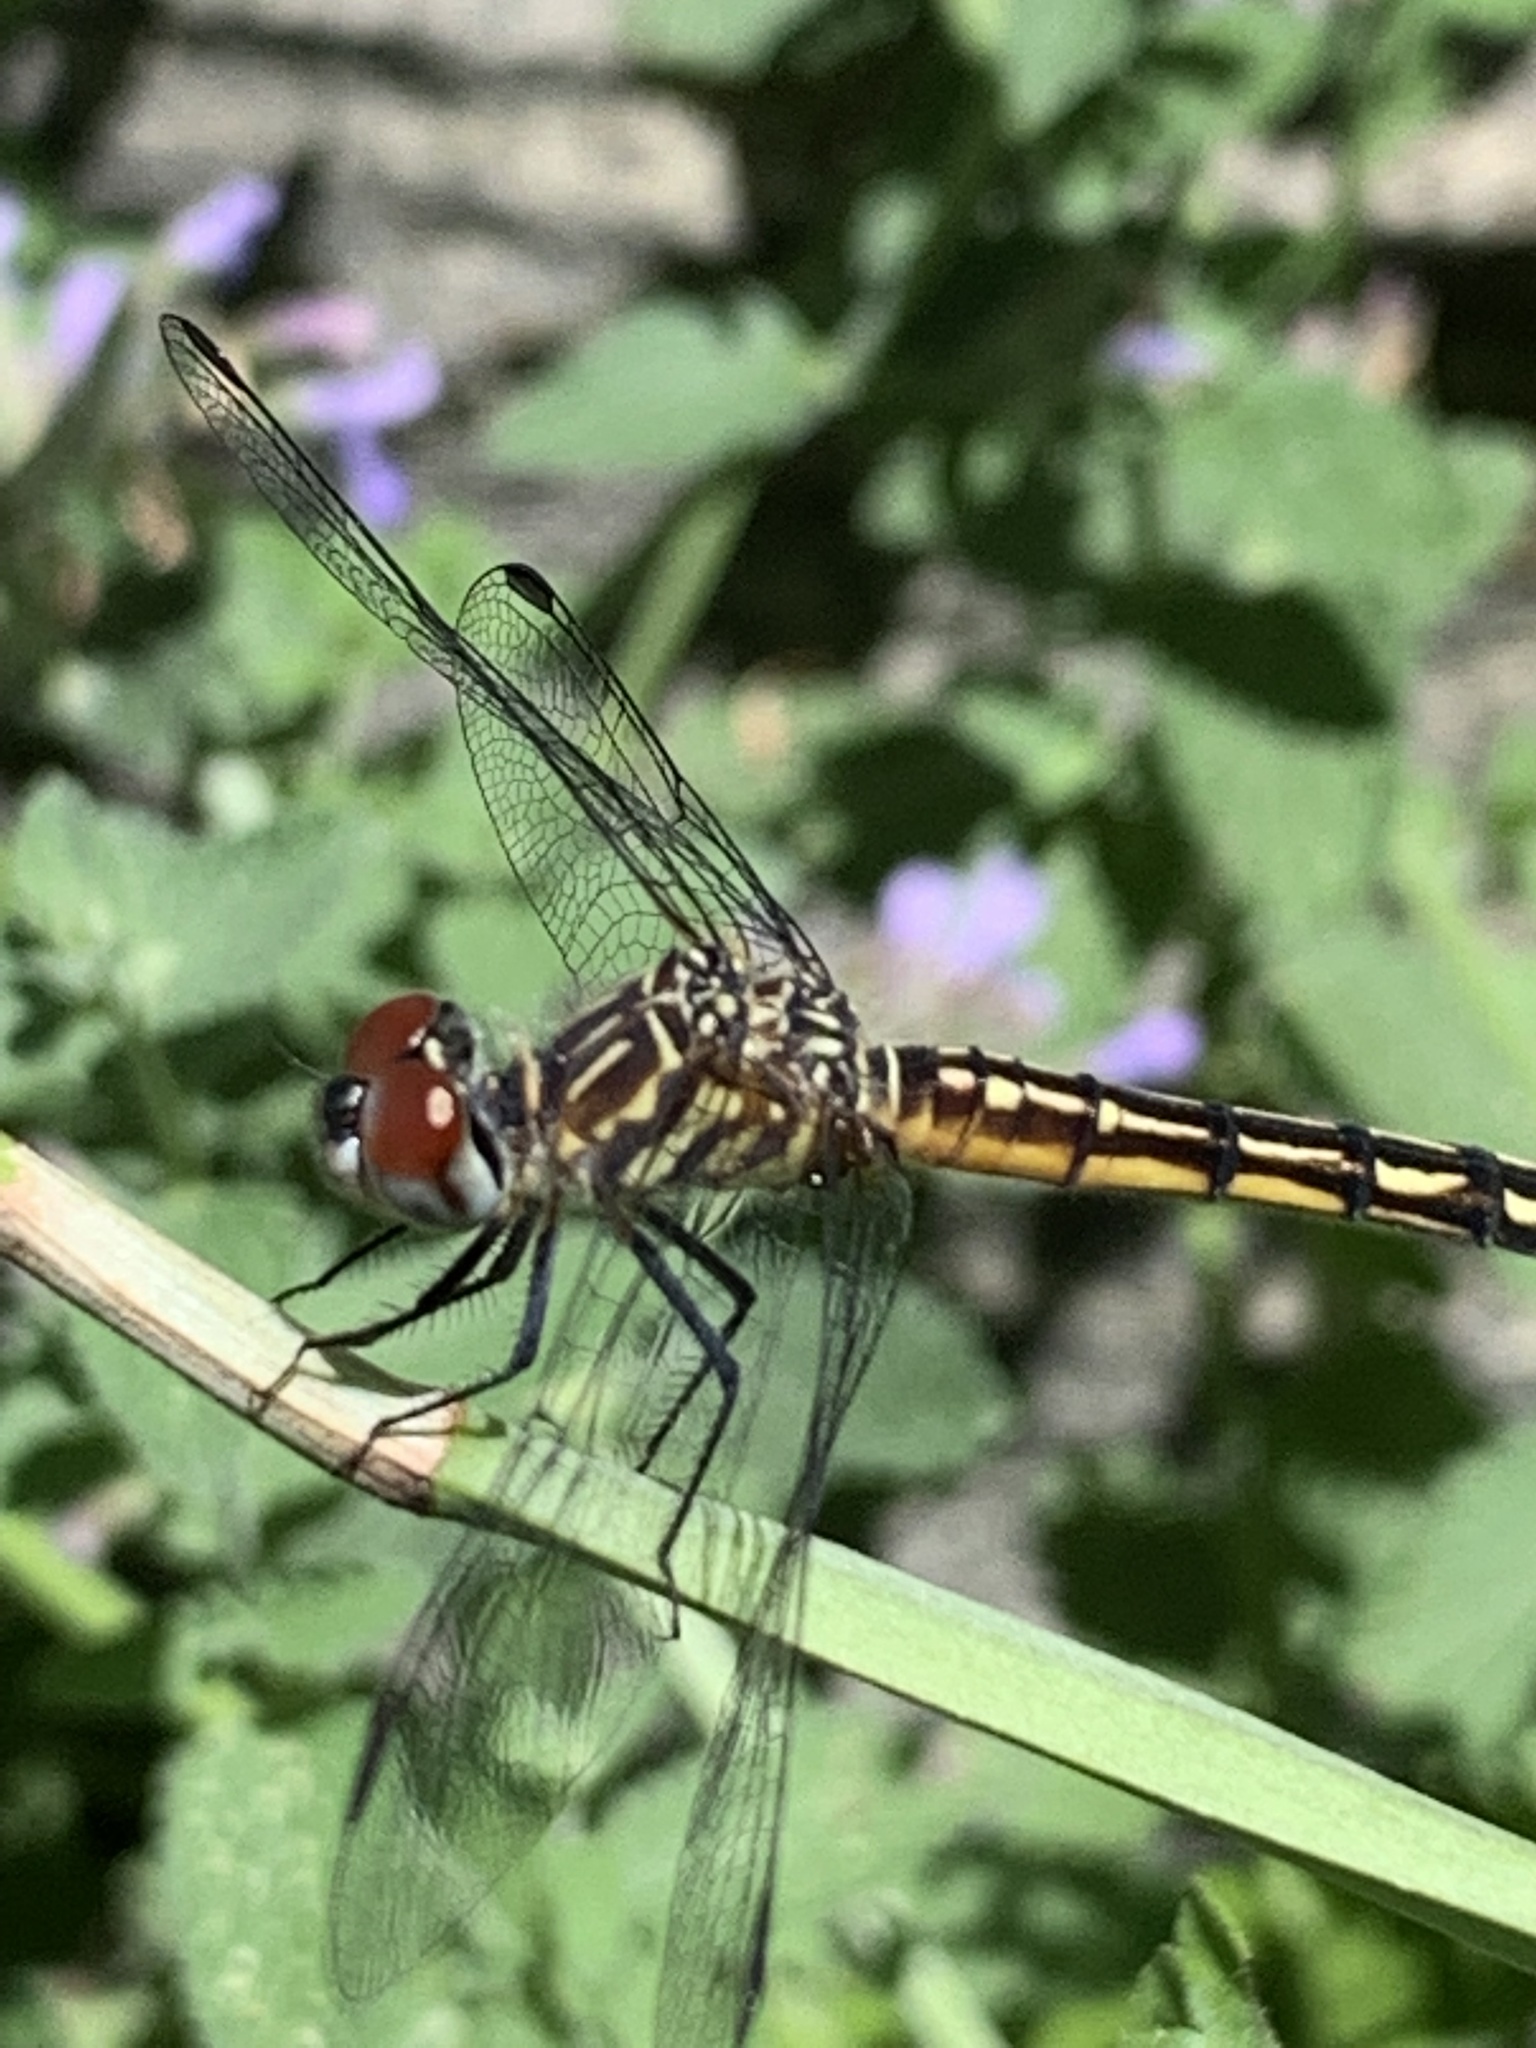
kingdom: Animalia
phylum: Arthropoda
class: Insecta
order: Odonata
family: Libellulidae
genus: Pachydiplax
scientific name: Pachydiplax longipennis
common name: Blue dasher
